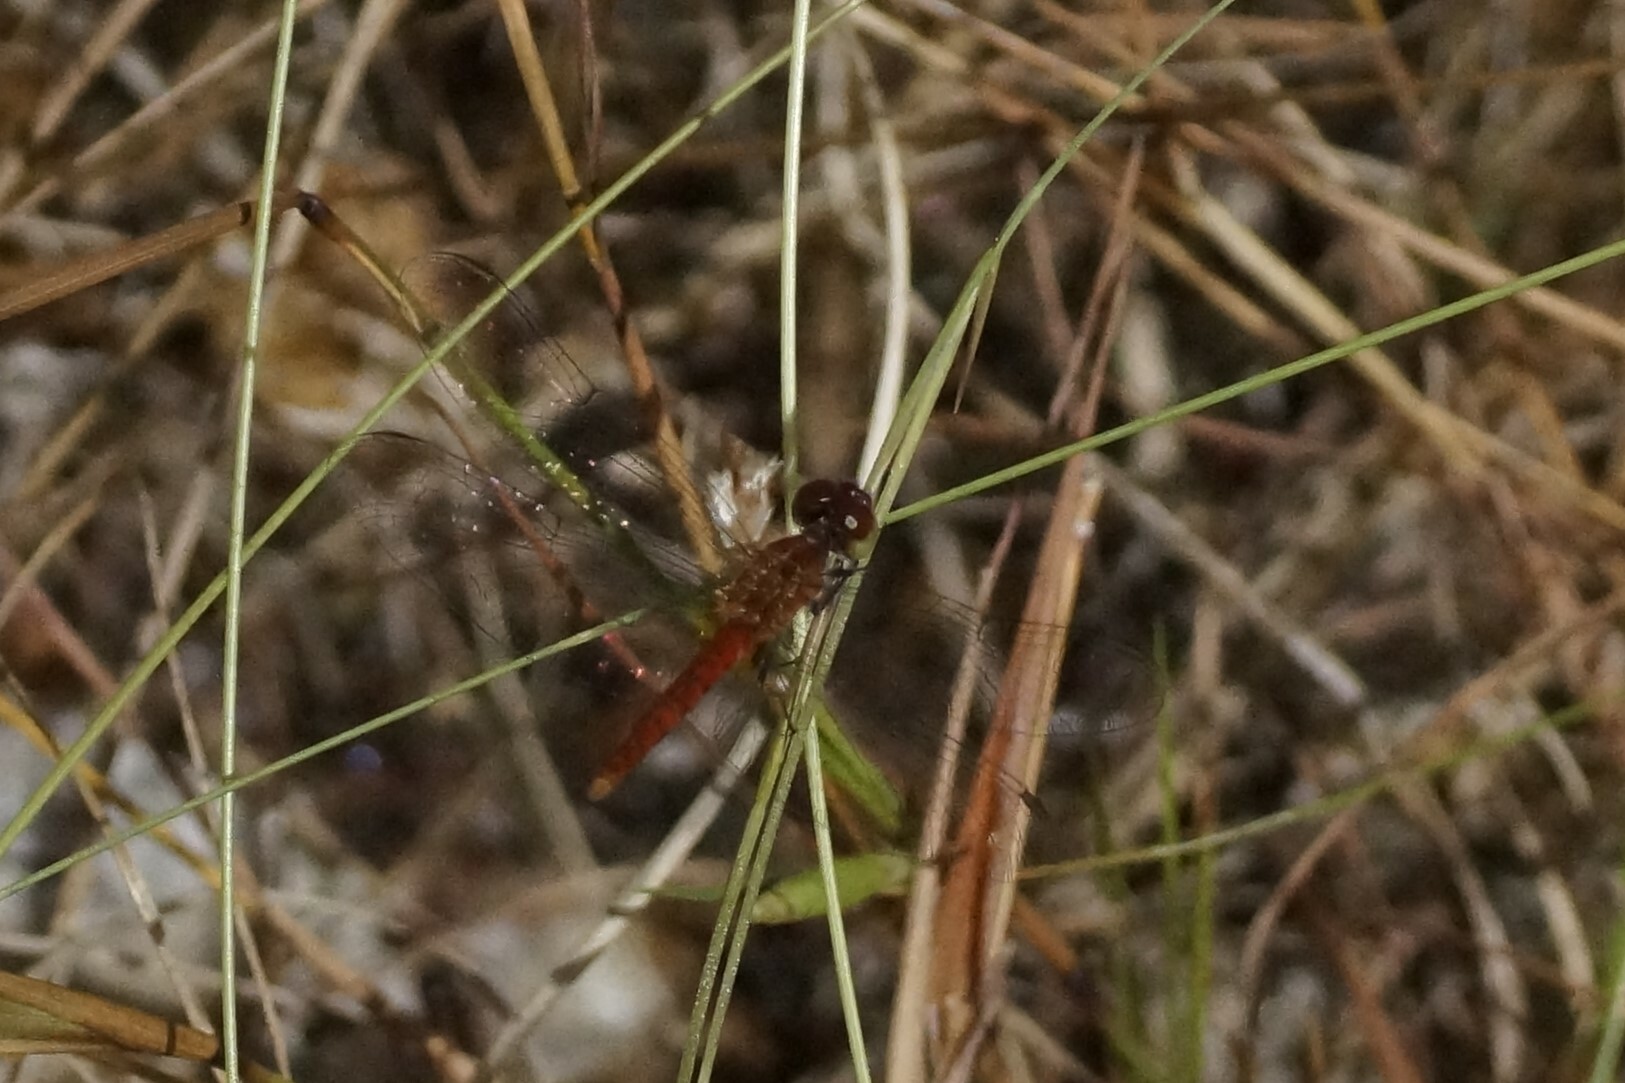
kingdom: Animalia
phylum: Arthropoda
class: Insecta
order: Odonata
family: Libellulidae
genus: Nannodiplax
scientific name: Nannodiplax rubra
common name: Pygmy percher
